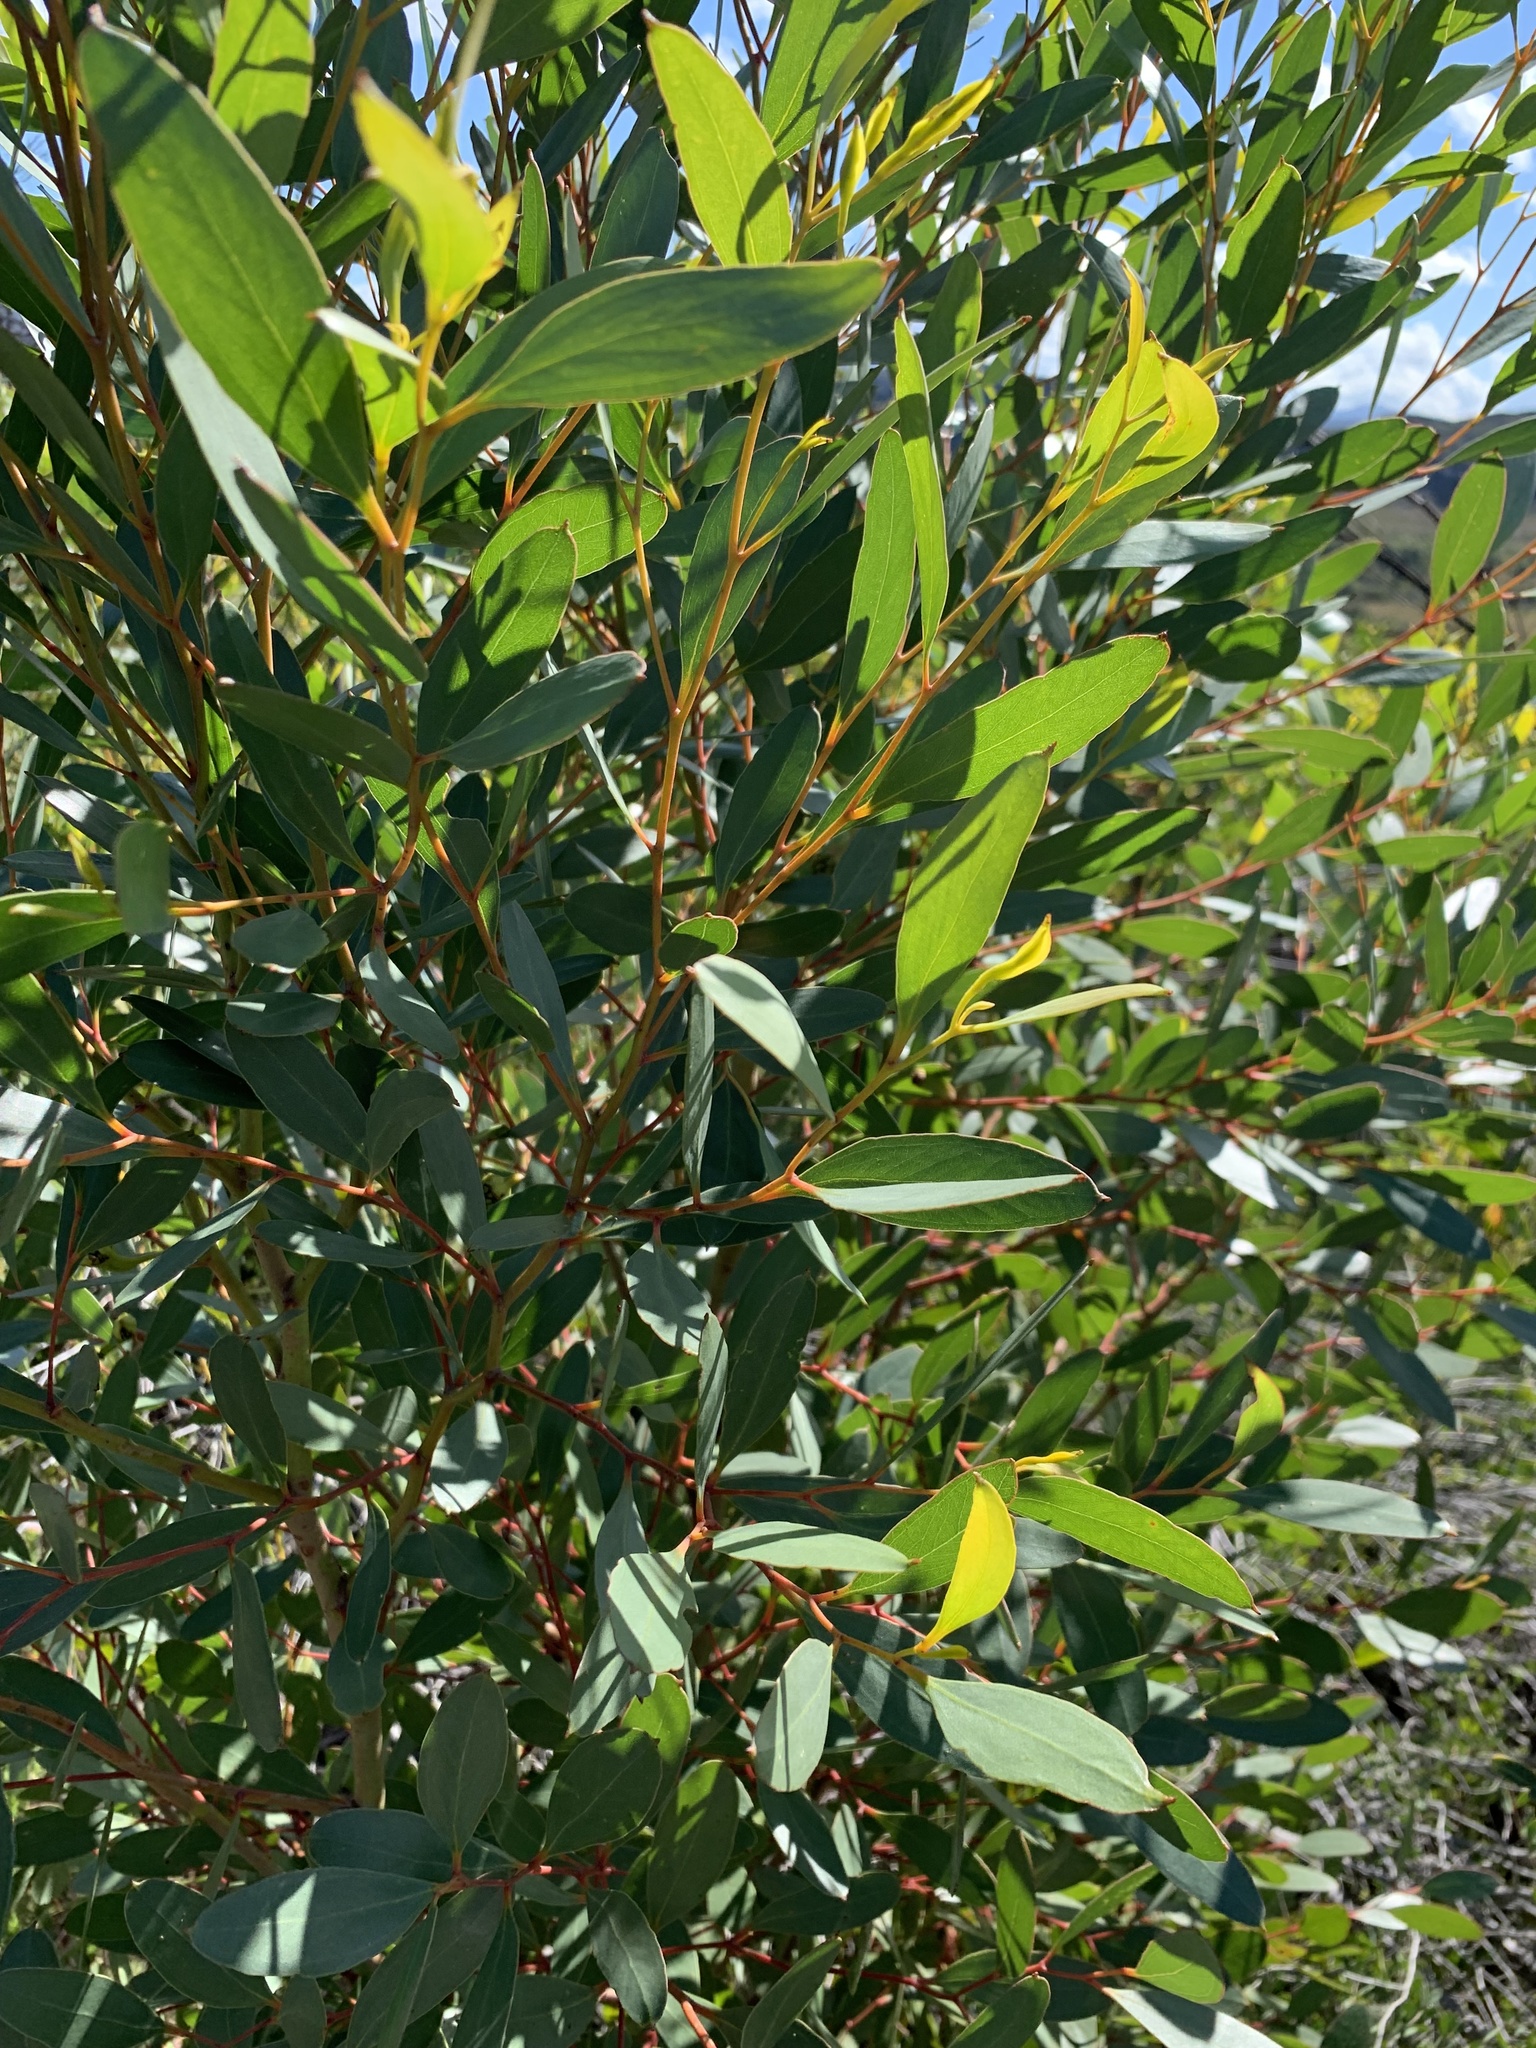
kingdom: Plantae
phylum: Tracheophyta
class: Magnoliopsida
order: Myrtales
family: Myrtaceae
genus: Eucalyptus
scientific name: Eucalyptus conferruminata
